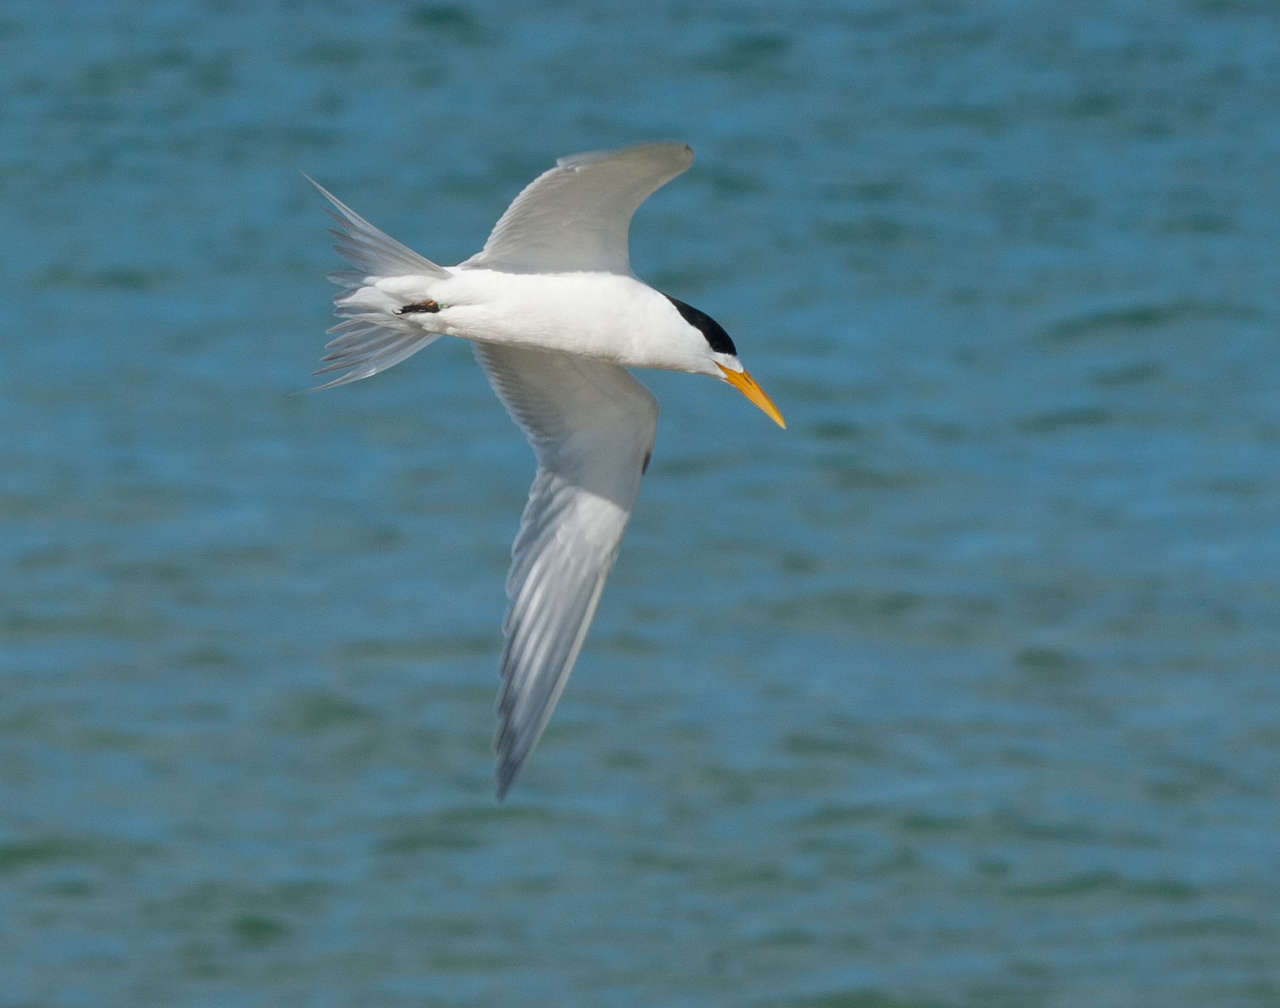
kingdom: Animalia
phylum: Chordata
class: Aves
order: Charadriiformes
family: Laridae
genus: Thalasseus
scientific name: Thalasseus bergii
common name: Greater crested tern
